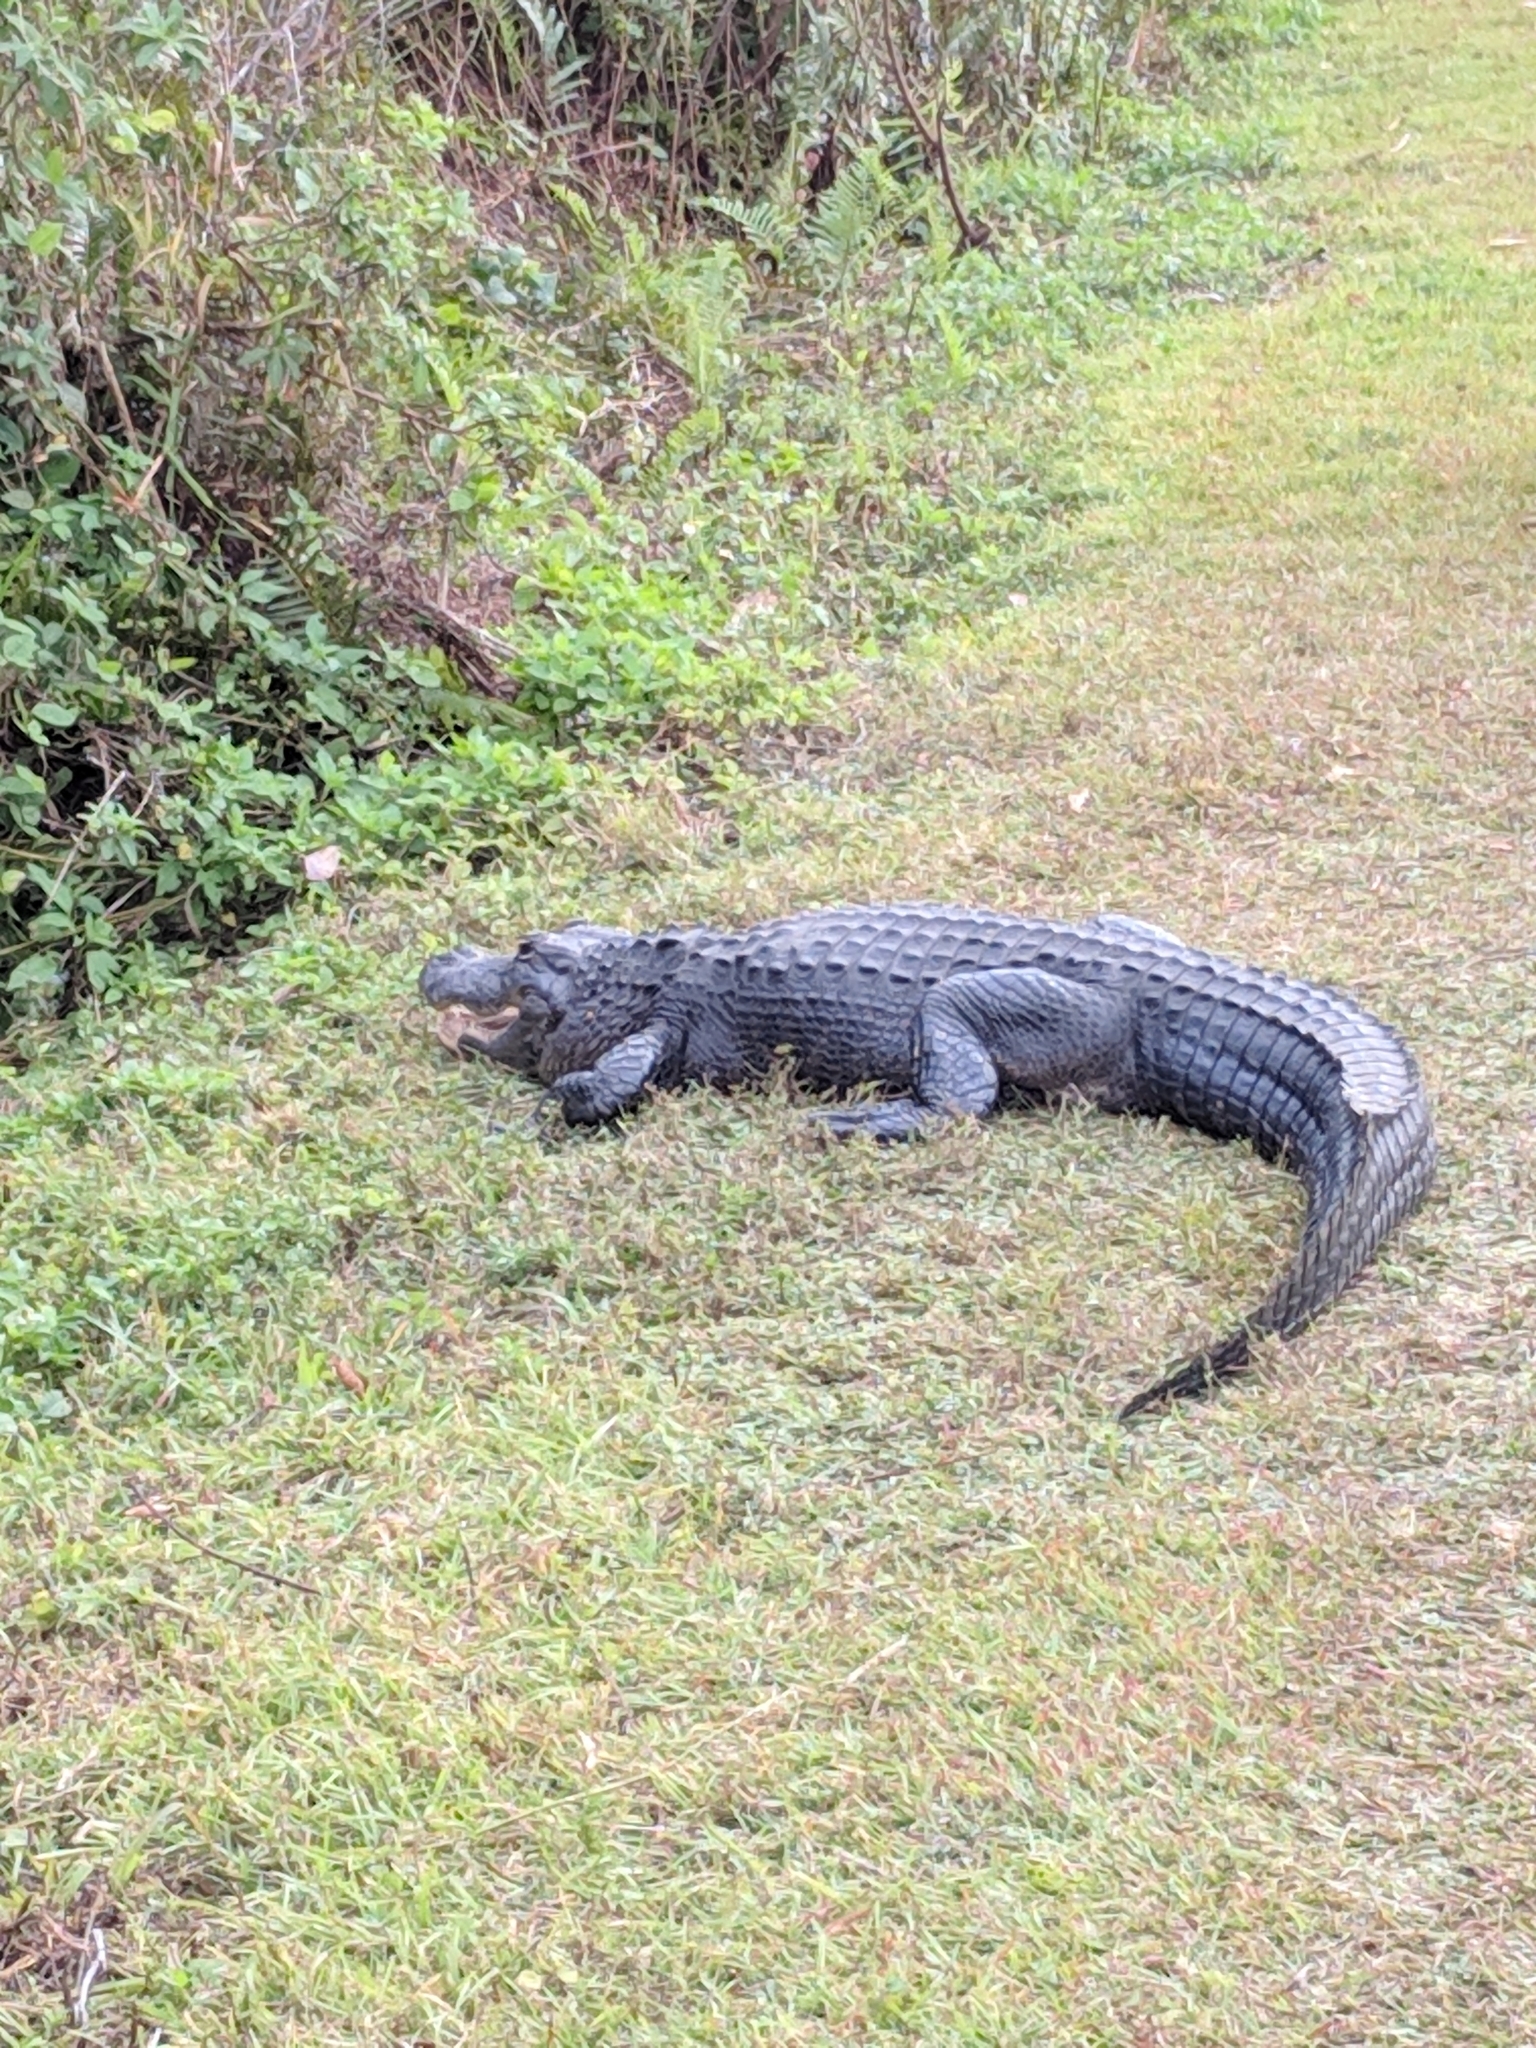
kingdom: Animalia
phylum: Chordata
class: Crocodylia
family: Alligatoridae
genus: Alligator
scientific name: Alligator mississippiensis
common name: American alligator
